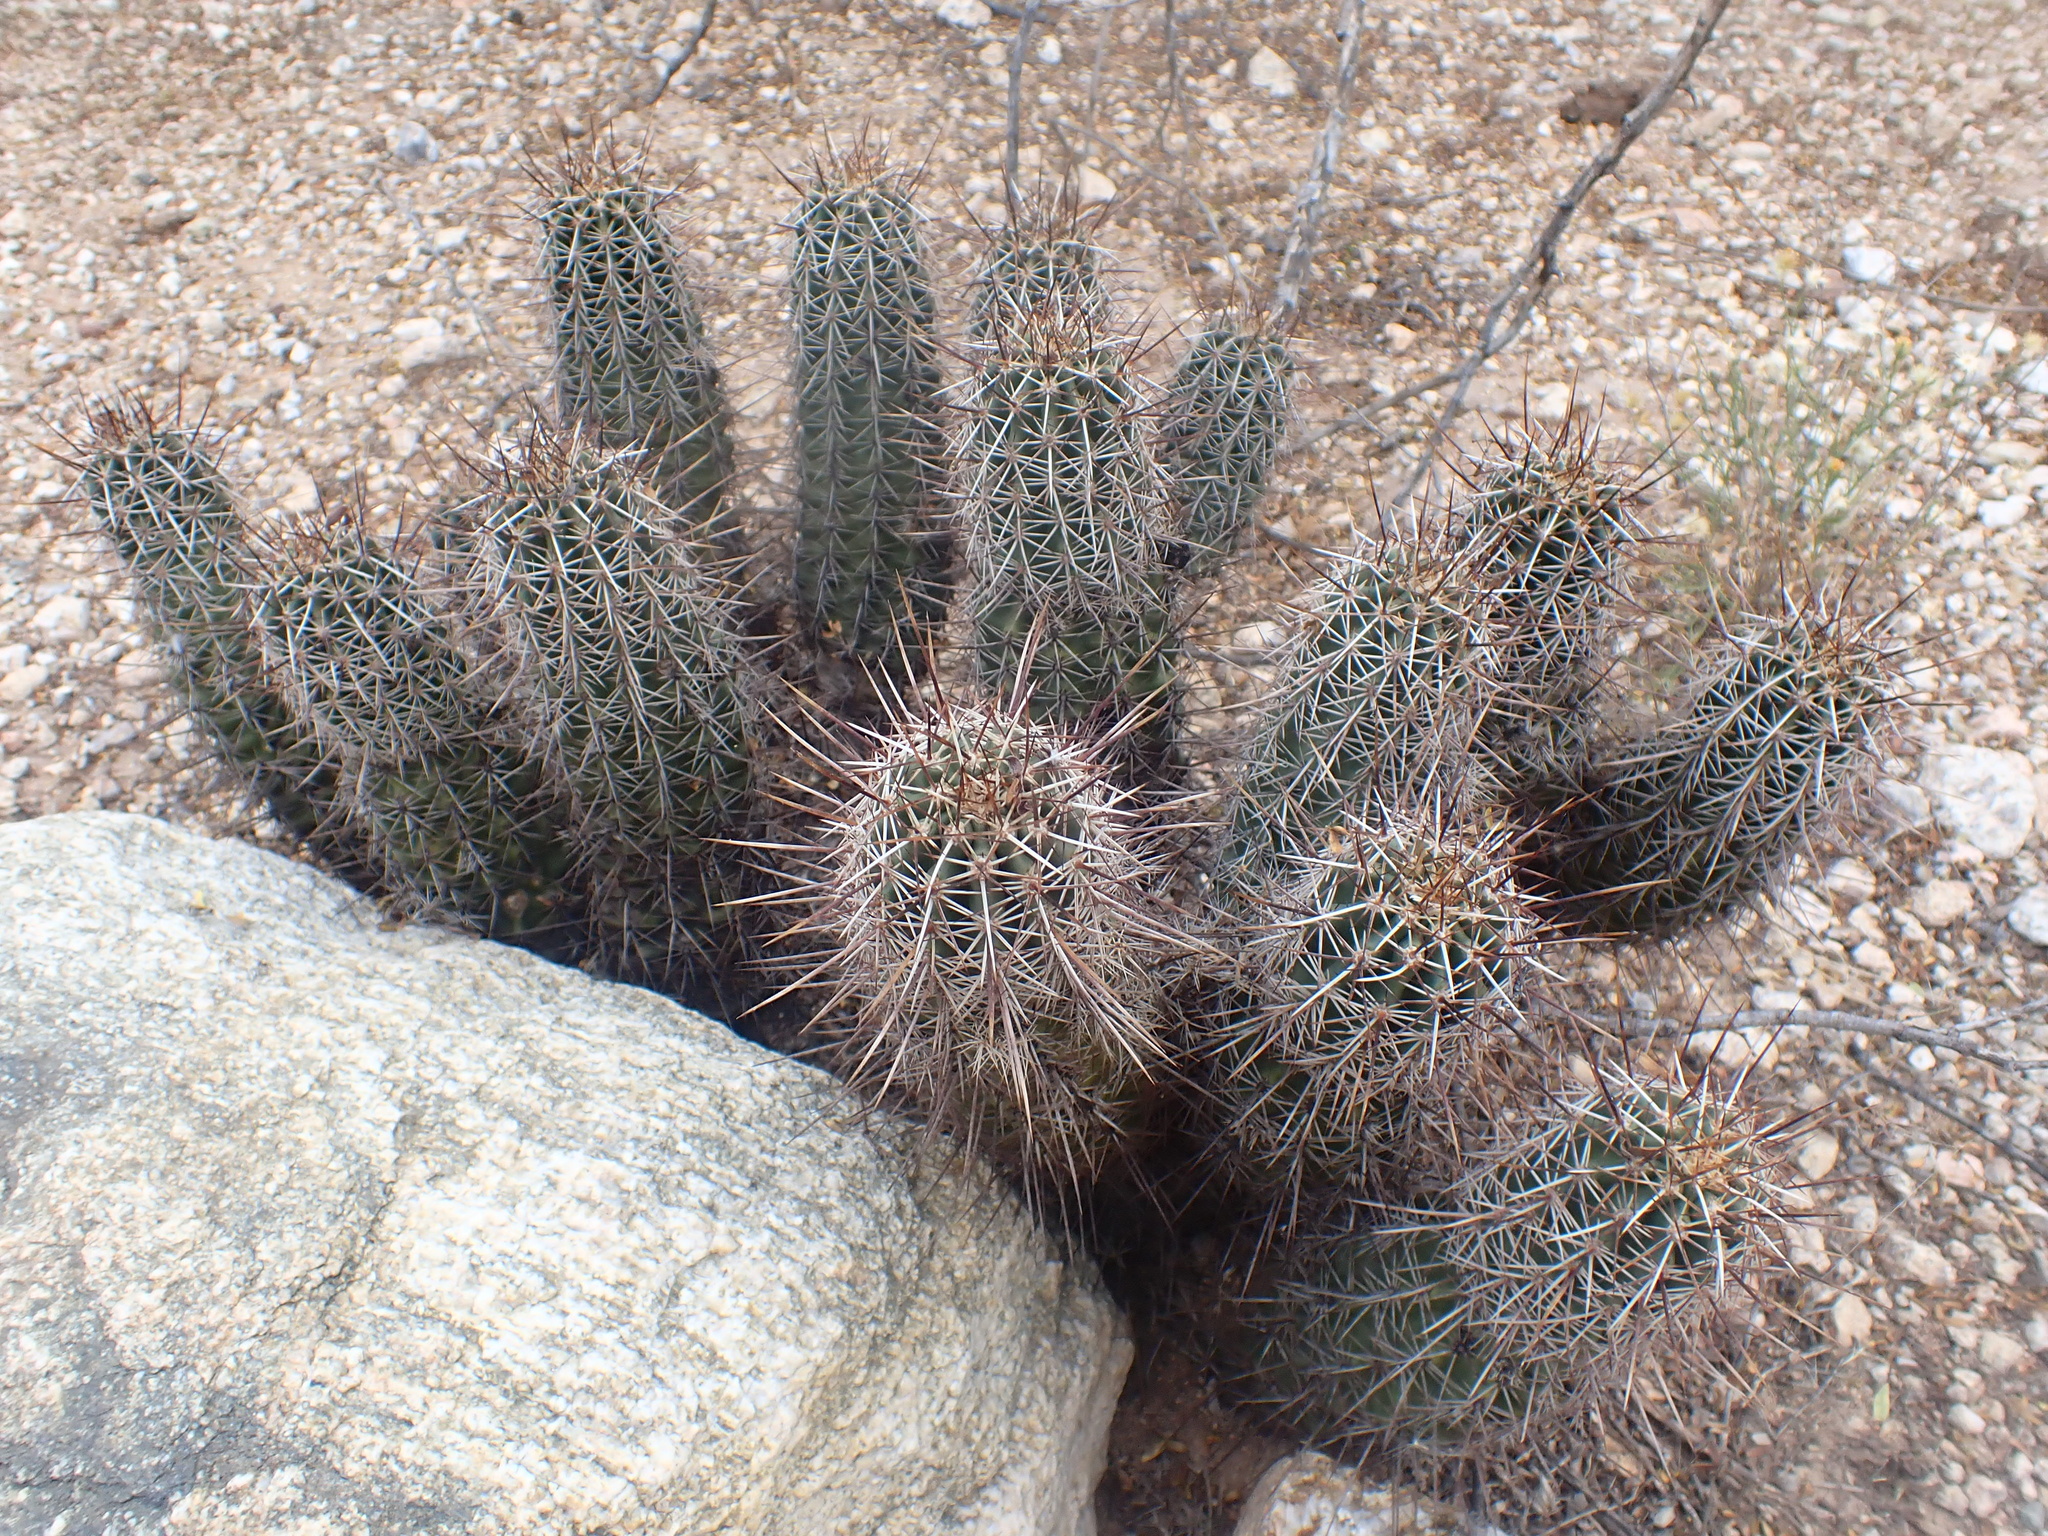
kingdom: Plantae
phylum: Tracheophyta
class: Magnoliopsida
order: Caryophyllales
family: Cactaceae
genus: Echinocereus
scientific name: Echinocereus fasciculatus
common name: Bundle hedgehog
